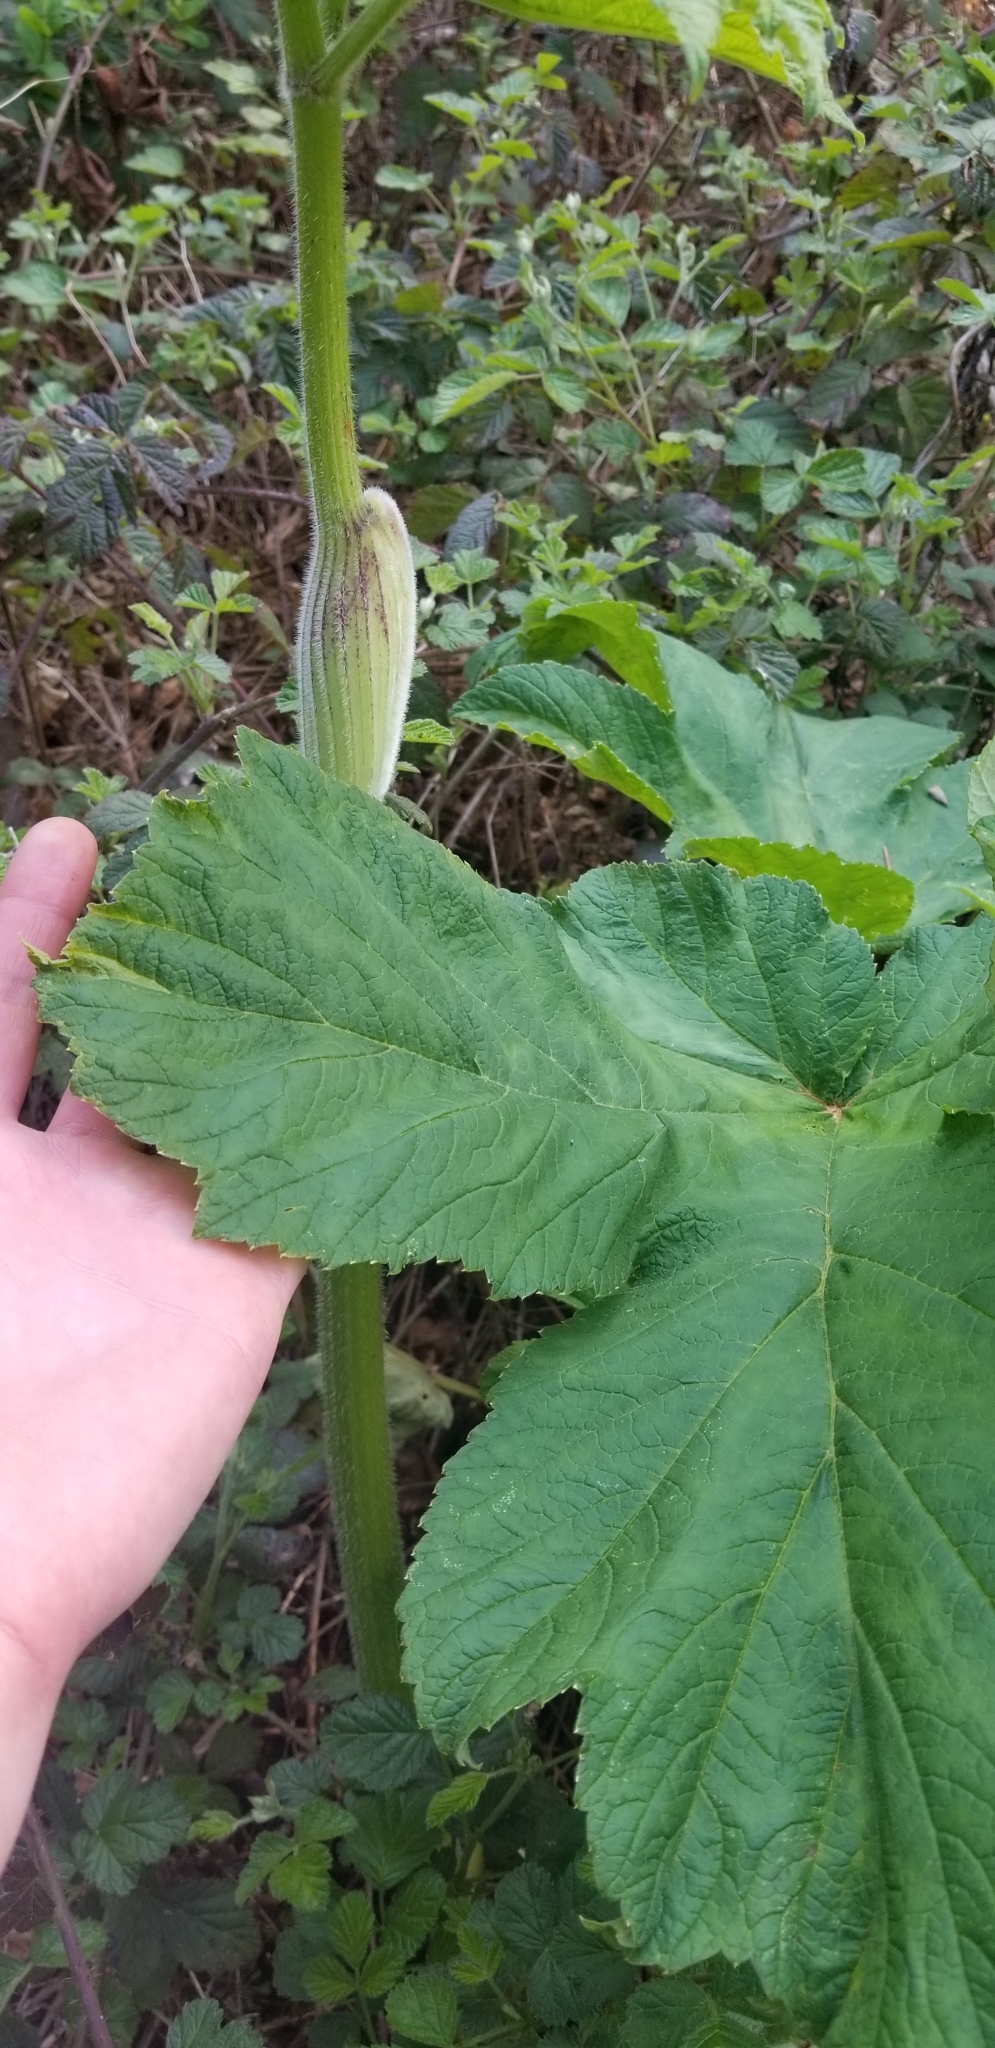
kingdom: Plantae
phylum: Tracheophyta
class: Magnoliopsida
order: Apiales
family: Apiaceae
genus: Heracleum
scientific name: Heracleum maximum
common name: American cow parsnip
